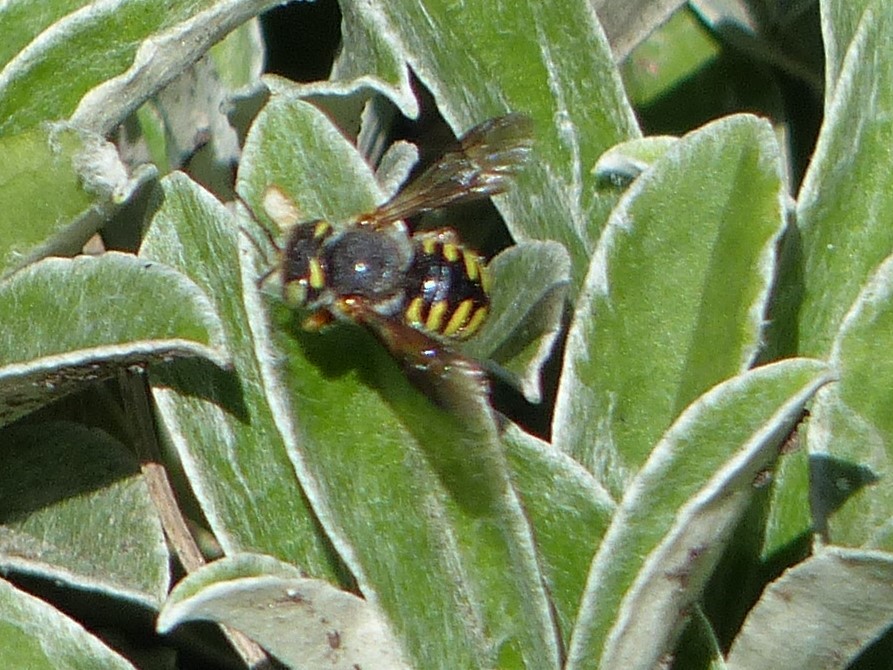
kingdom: Animalia
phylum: Arthropoda
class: Insecta
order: Hymenoptera
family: Megachilidae
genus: Anthidium
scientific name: Anthidium oblongatum
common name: Oblong wool carder bee
